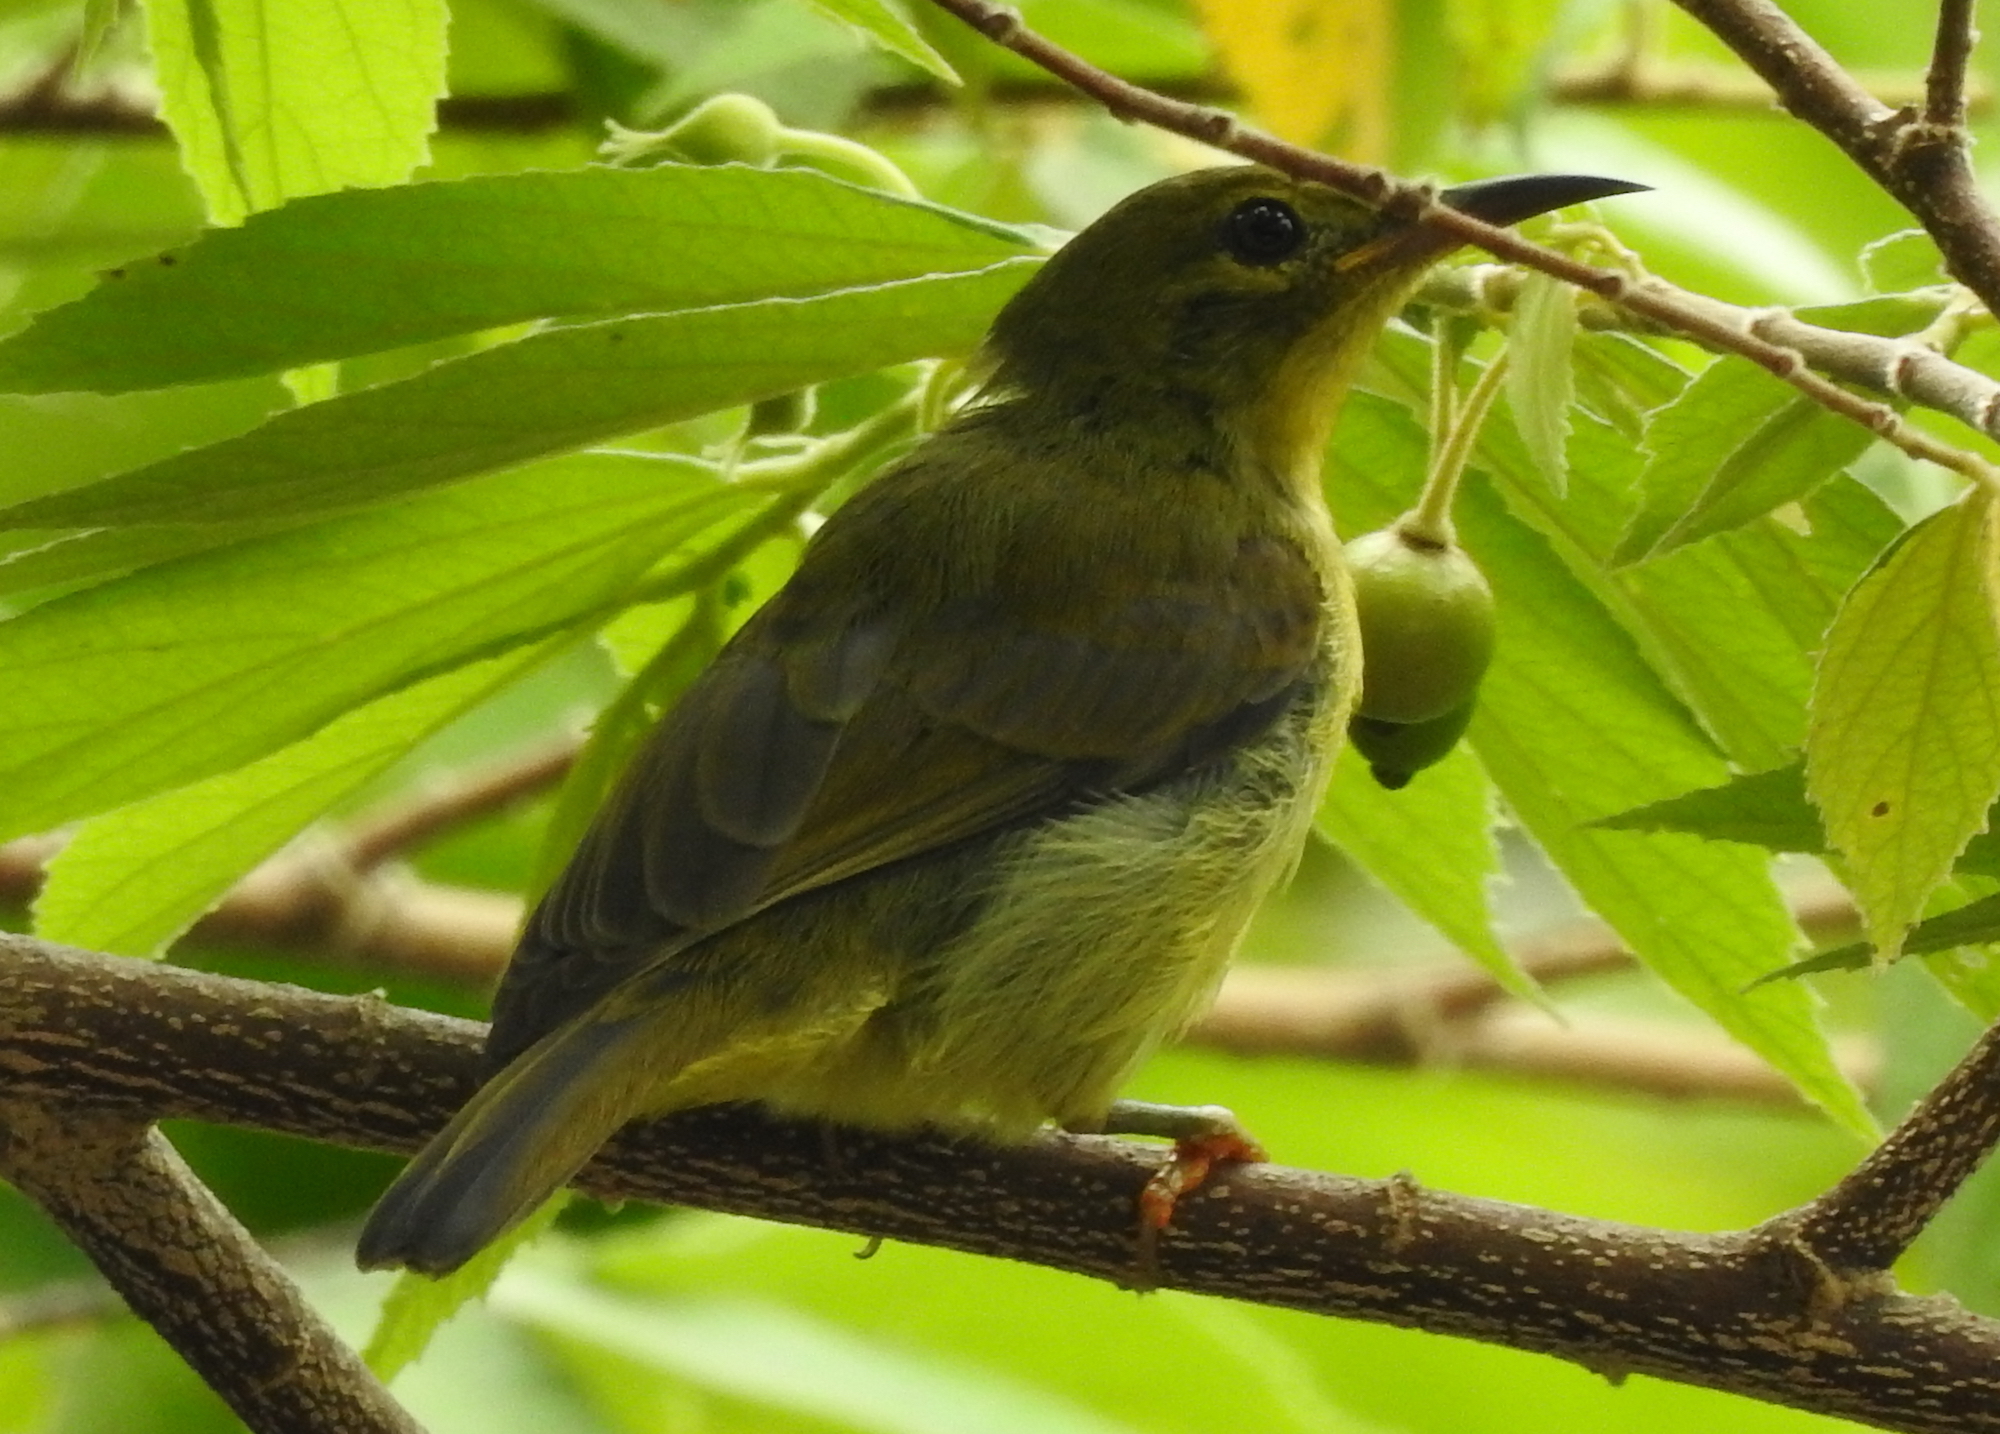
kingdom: Animalia
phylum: Chordata
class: Aves
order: Passeriformes
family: Nectariniidae
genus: Anthreptes
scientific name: Anthreptes malacensis
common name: Brown-throated sunbird
